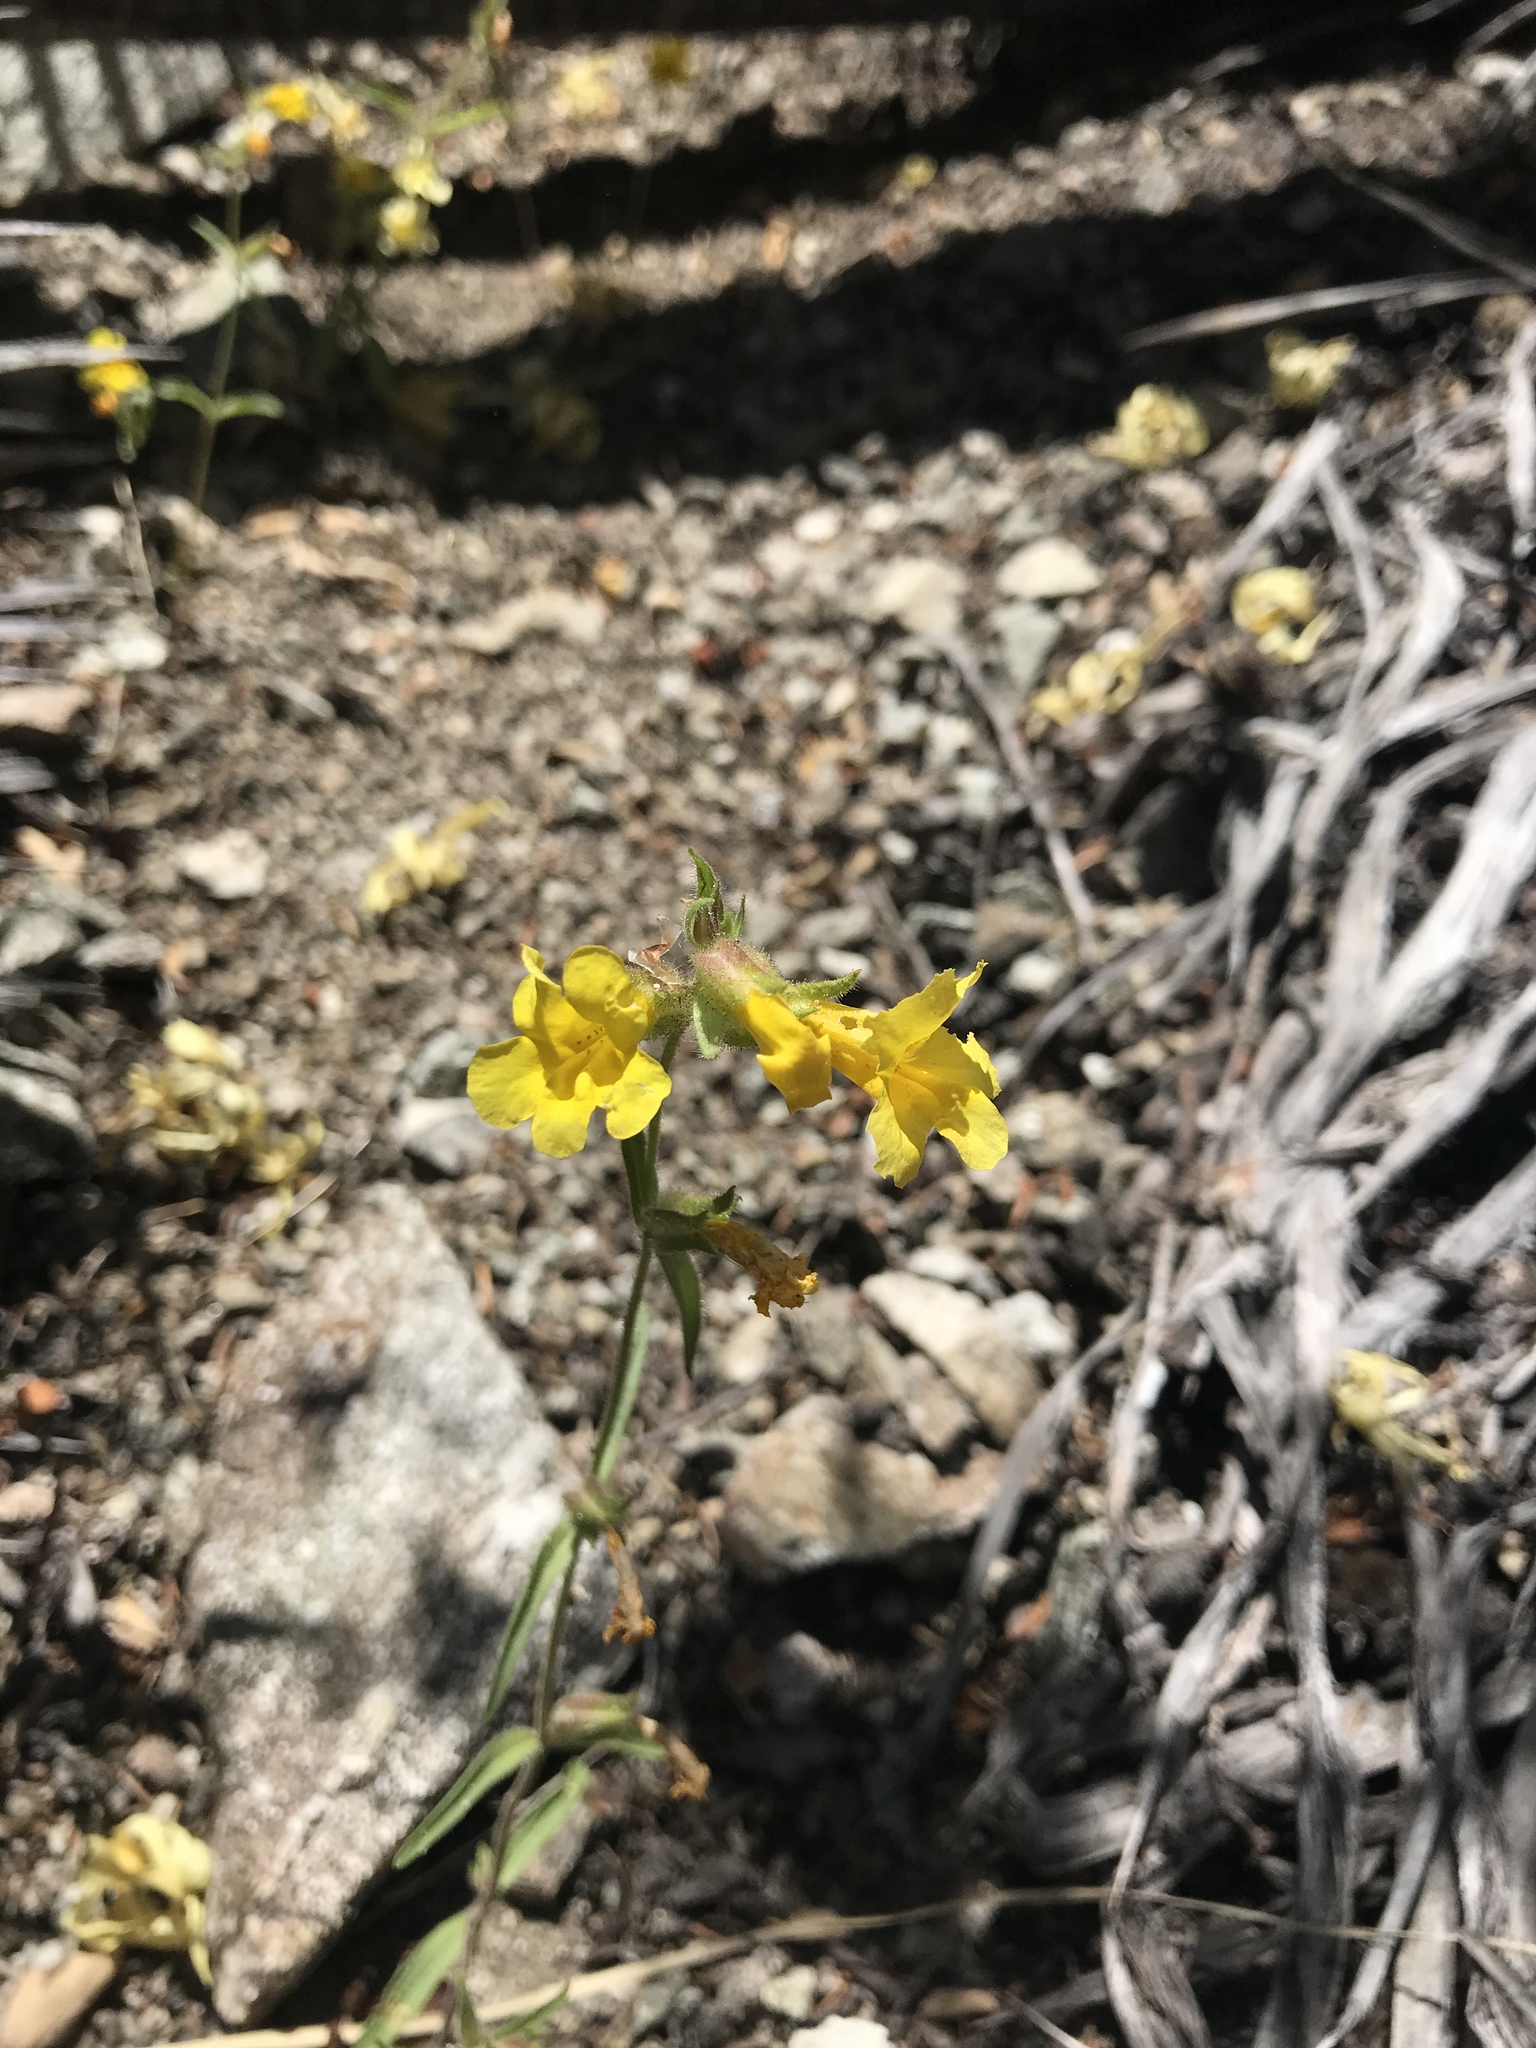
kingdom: Plantae
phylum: Tracheophyta
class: Magnoliopsida
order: Lamiales
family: Phrymaceae
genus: Diplacus
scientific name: Diplacus brevipes
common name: Wide-throat yellow monkey-flower
